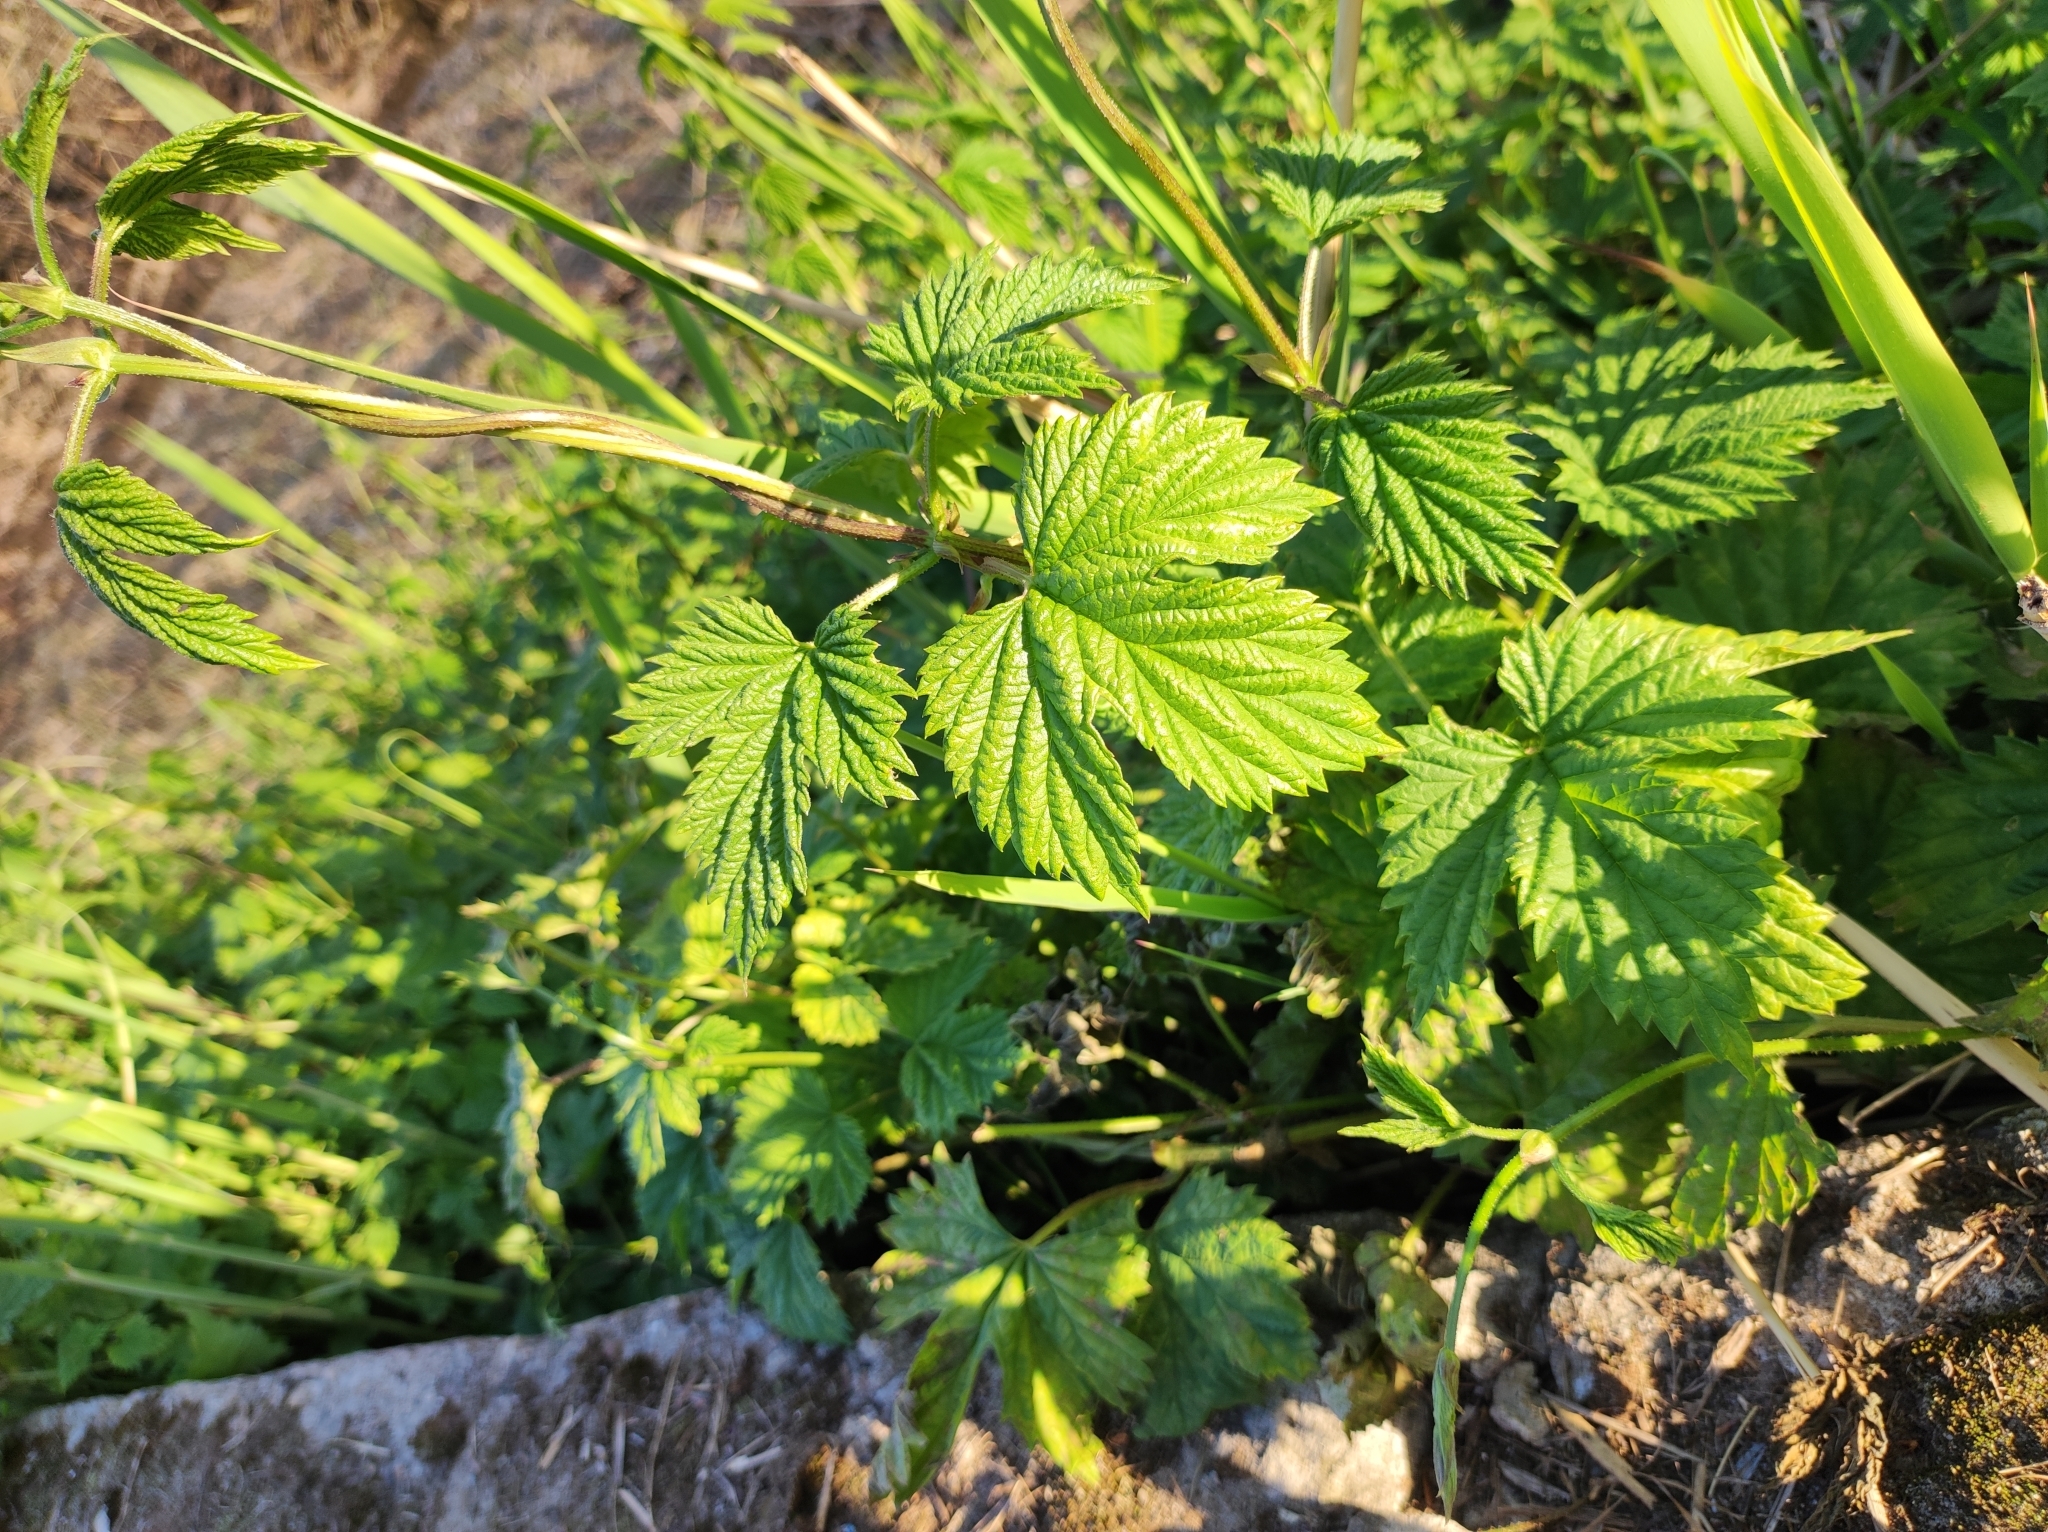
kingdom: Plantae
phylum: Tracheophyta
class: Magnoliopsida
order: Rosales
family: Cannabaceae
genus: Humulus
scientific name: Humulus lupulus
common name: Hop
